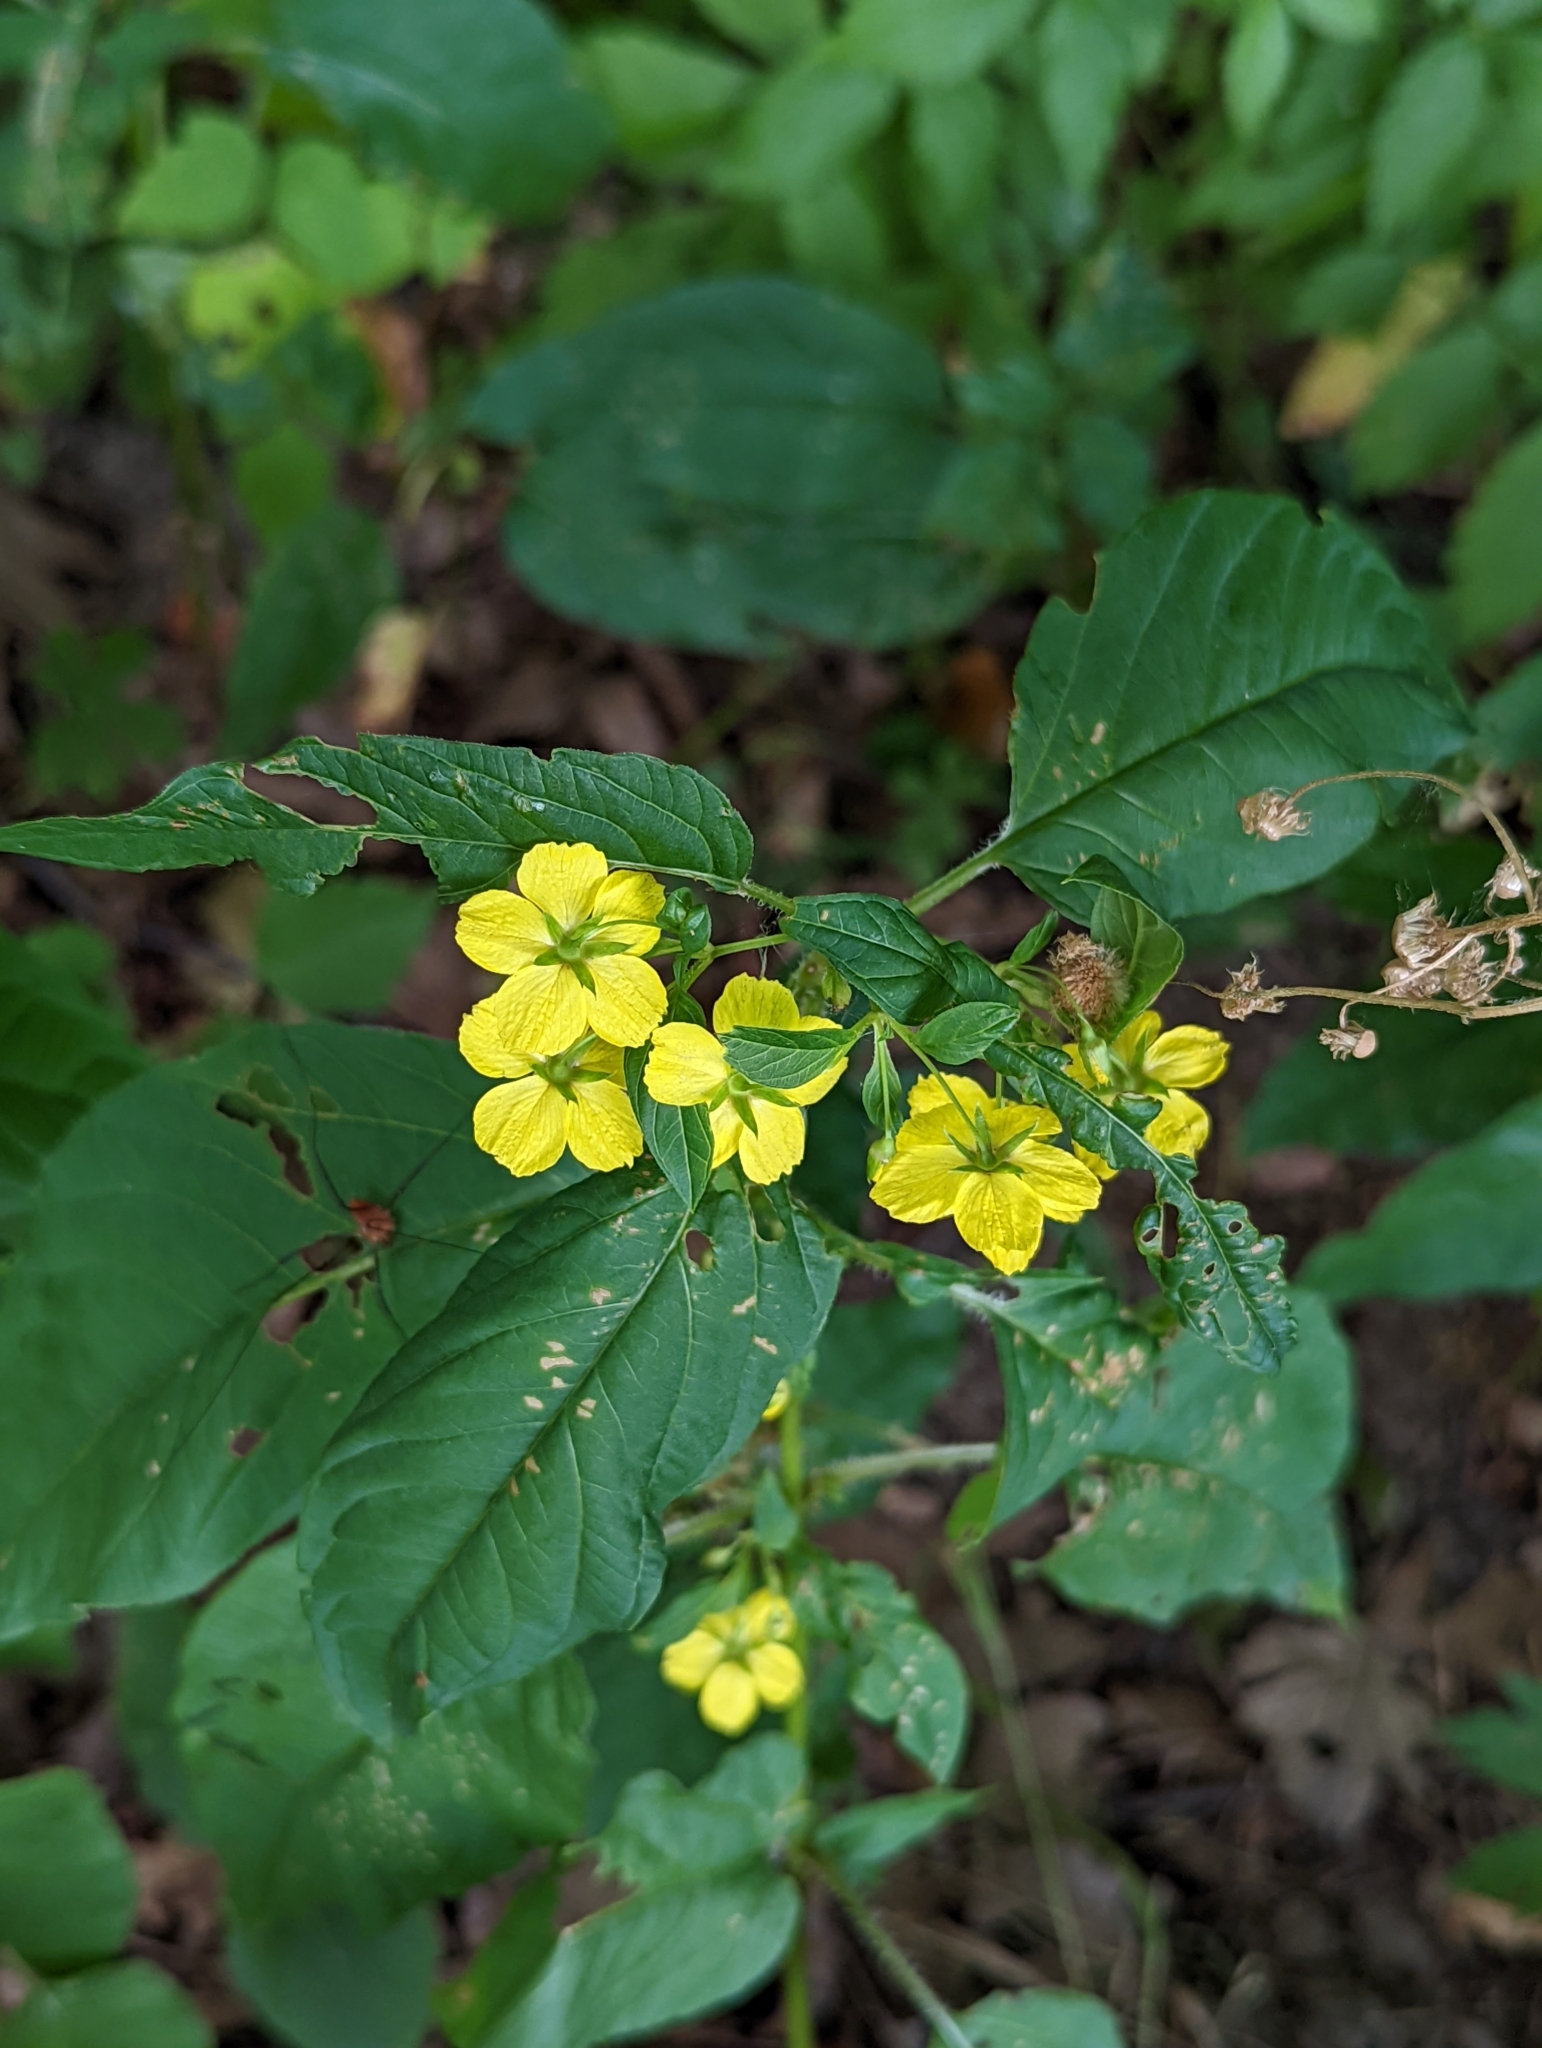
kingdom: Plantae
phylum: Tracheophyta
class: Magnoliopsida
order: Ericales
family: Primulaceae
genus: Lysimachia
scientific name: Lysimachia ciliata
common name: Fringed loosestrife
